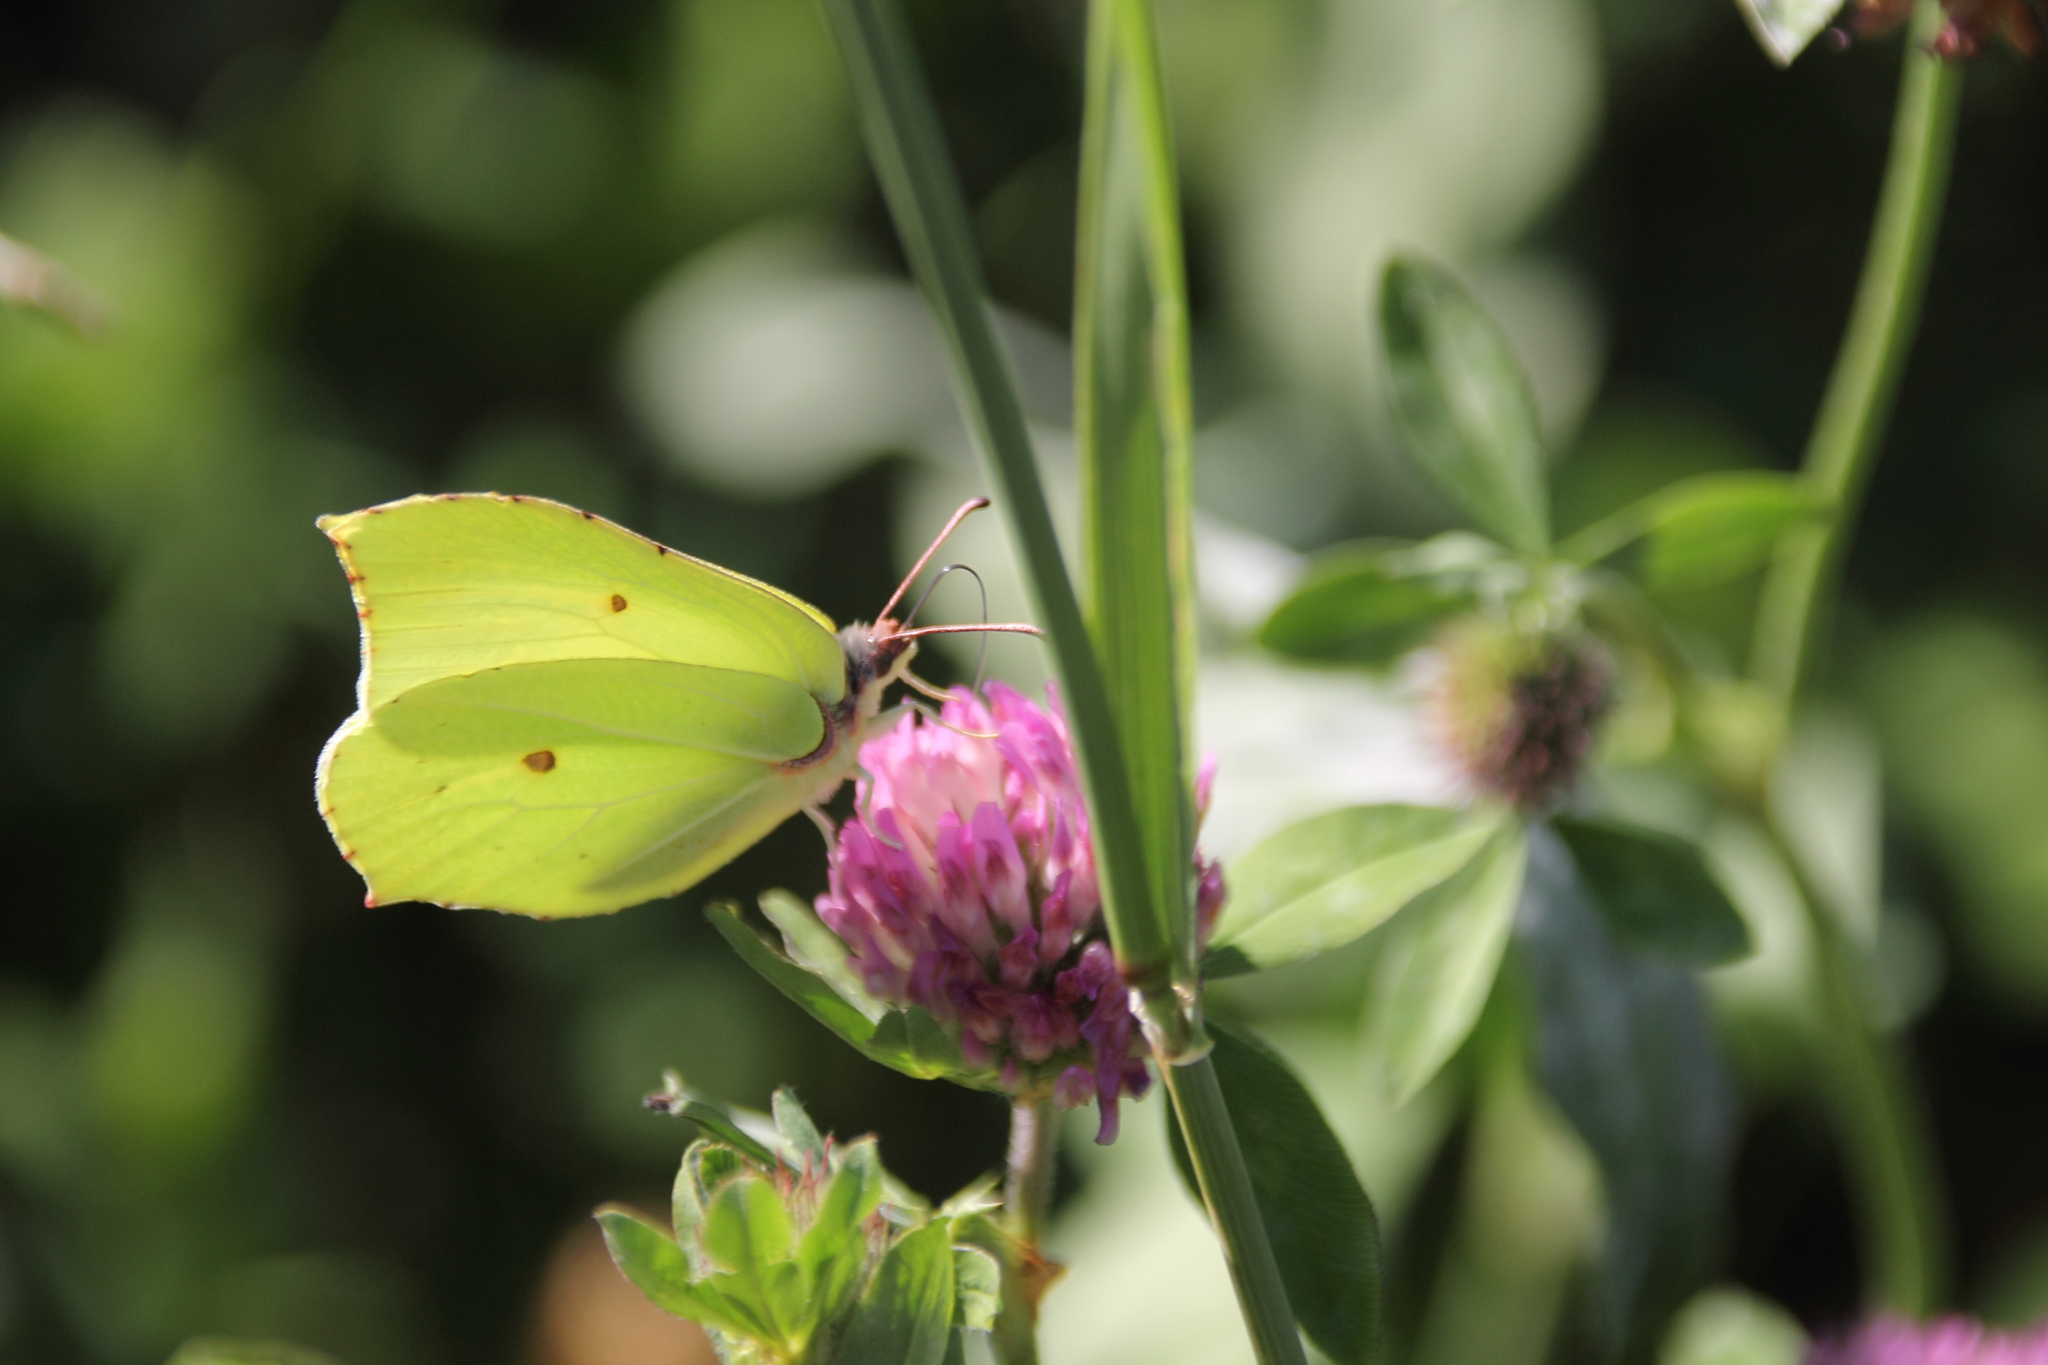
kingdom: Animalia
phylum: Arthropoda
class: Insecta
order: Lepidoptera
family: Pieridae
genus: Gonepteryx
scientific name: Gonepteryx rhamni
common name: Brimstone
